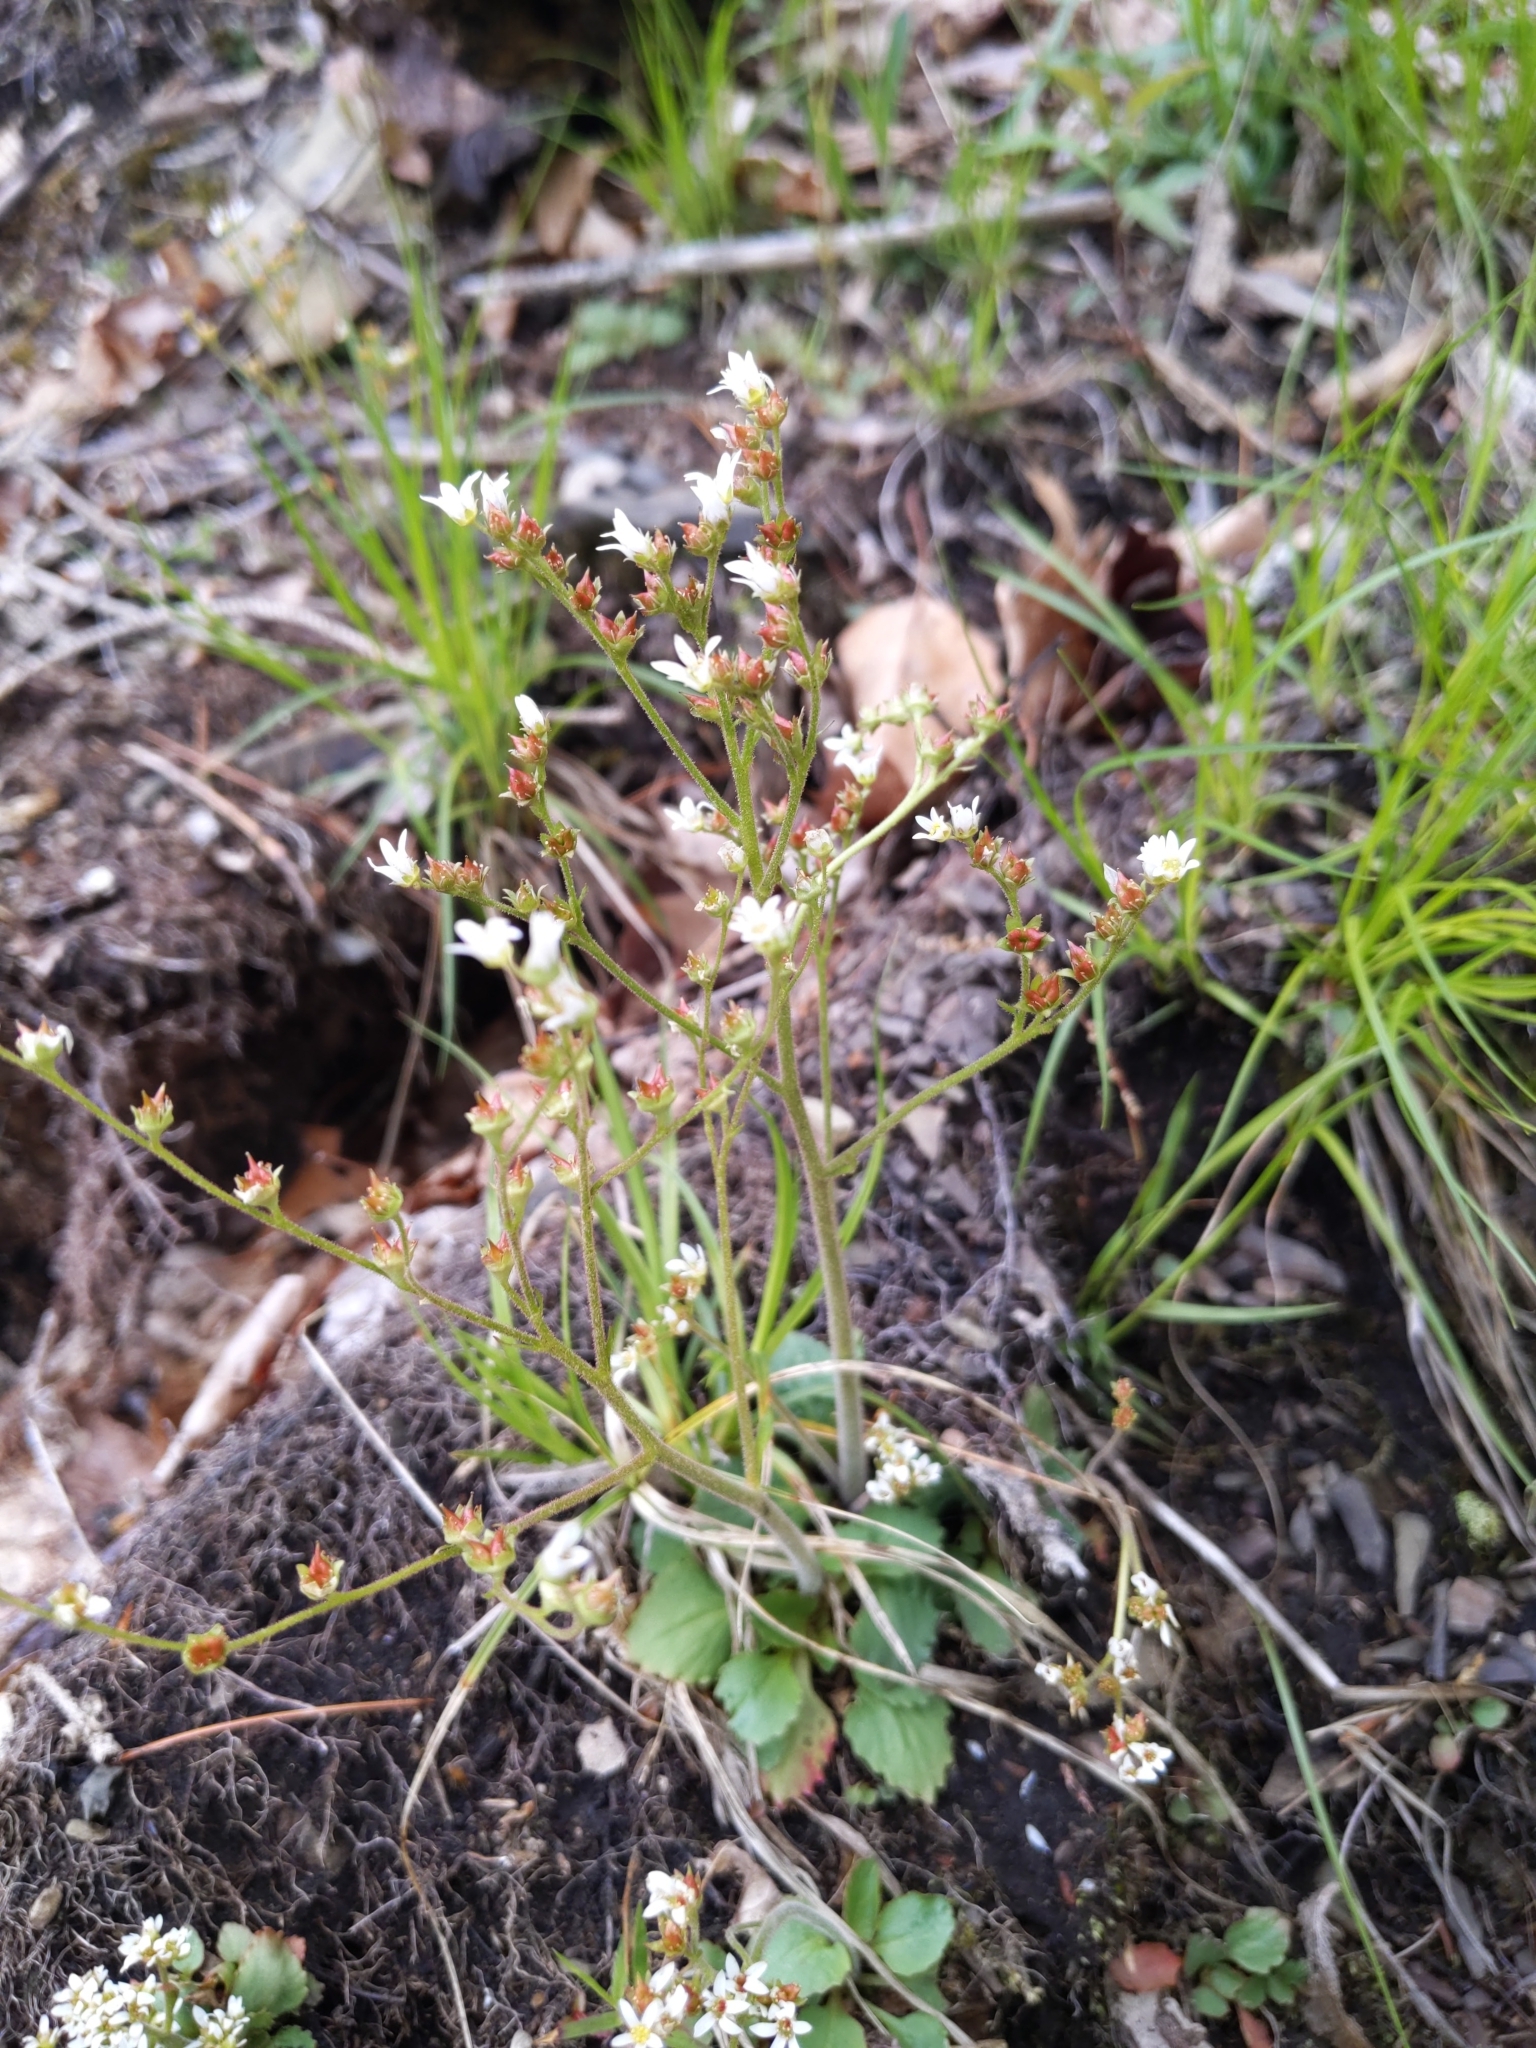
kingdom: Plantae
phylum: Tracheophyta
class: Magnoliopsida
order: Saxifragales
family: Saxifragaceae
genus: Micranthes
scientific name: Micranthes virginiensis
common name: Early saxifrage
